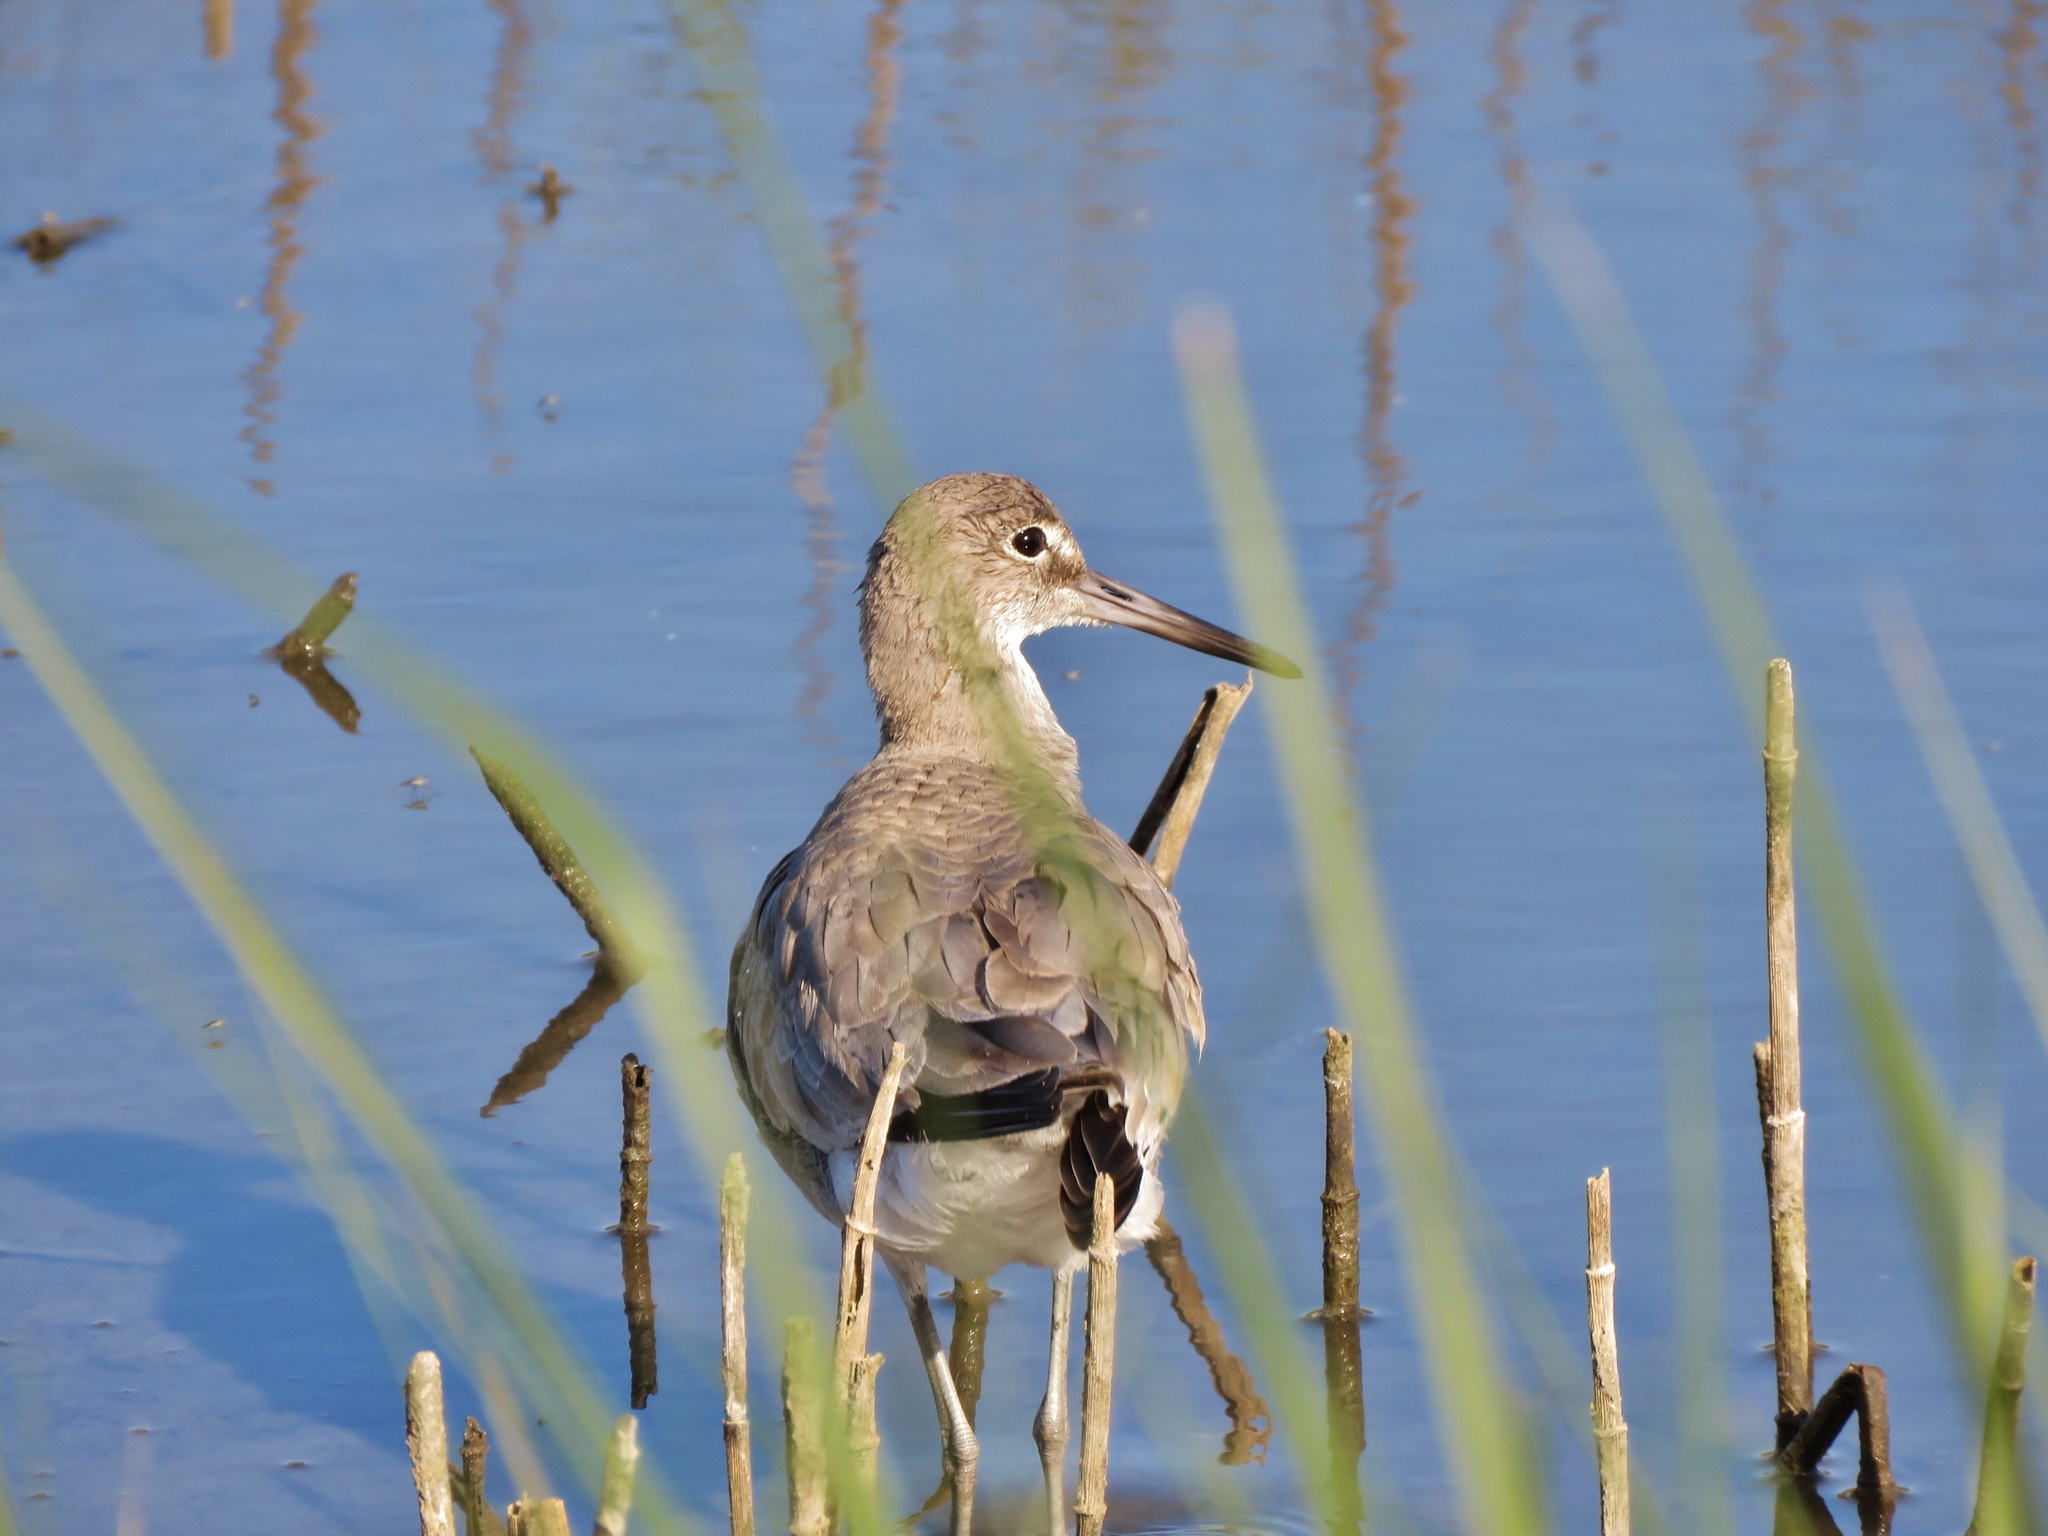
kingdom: Animalia
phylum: Chordata
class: Aves
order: Charadriiformes
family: Scolopacidae
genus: Tringa
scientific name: Tringa semipalmata
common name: Willet
